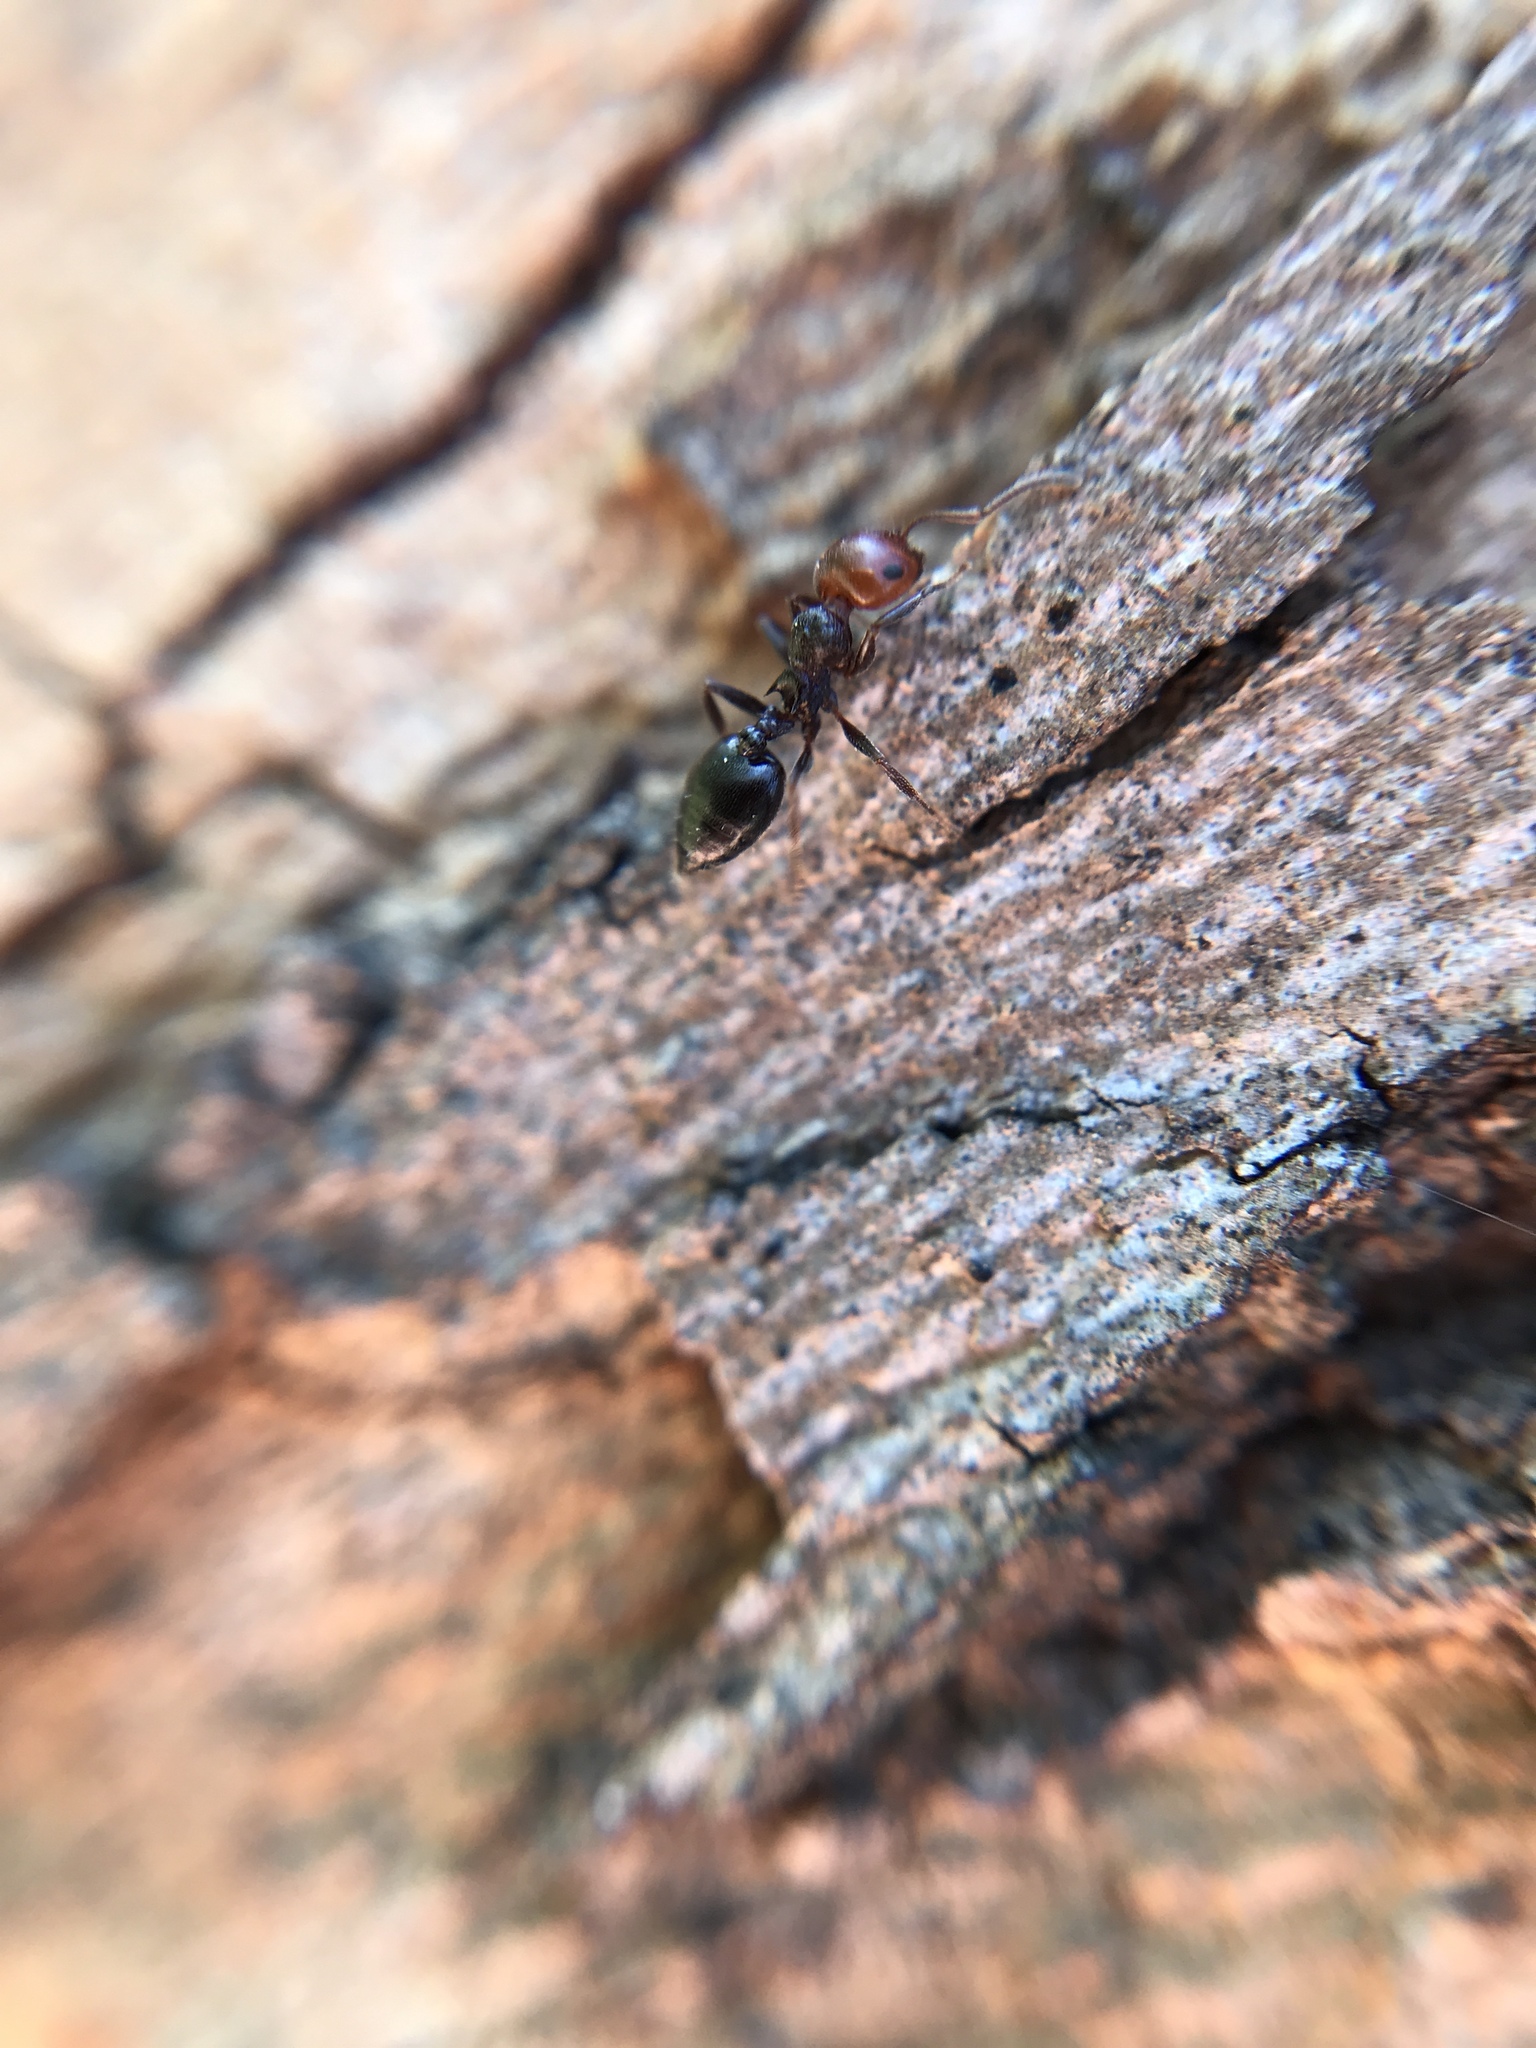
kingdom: Animalia
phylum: Arthropoda
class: Insecta
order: Hymenoptera
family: Formicidae
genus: Crematogaster
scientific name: Crematogaster scutellaris
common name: Fourmi du liège
